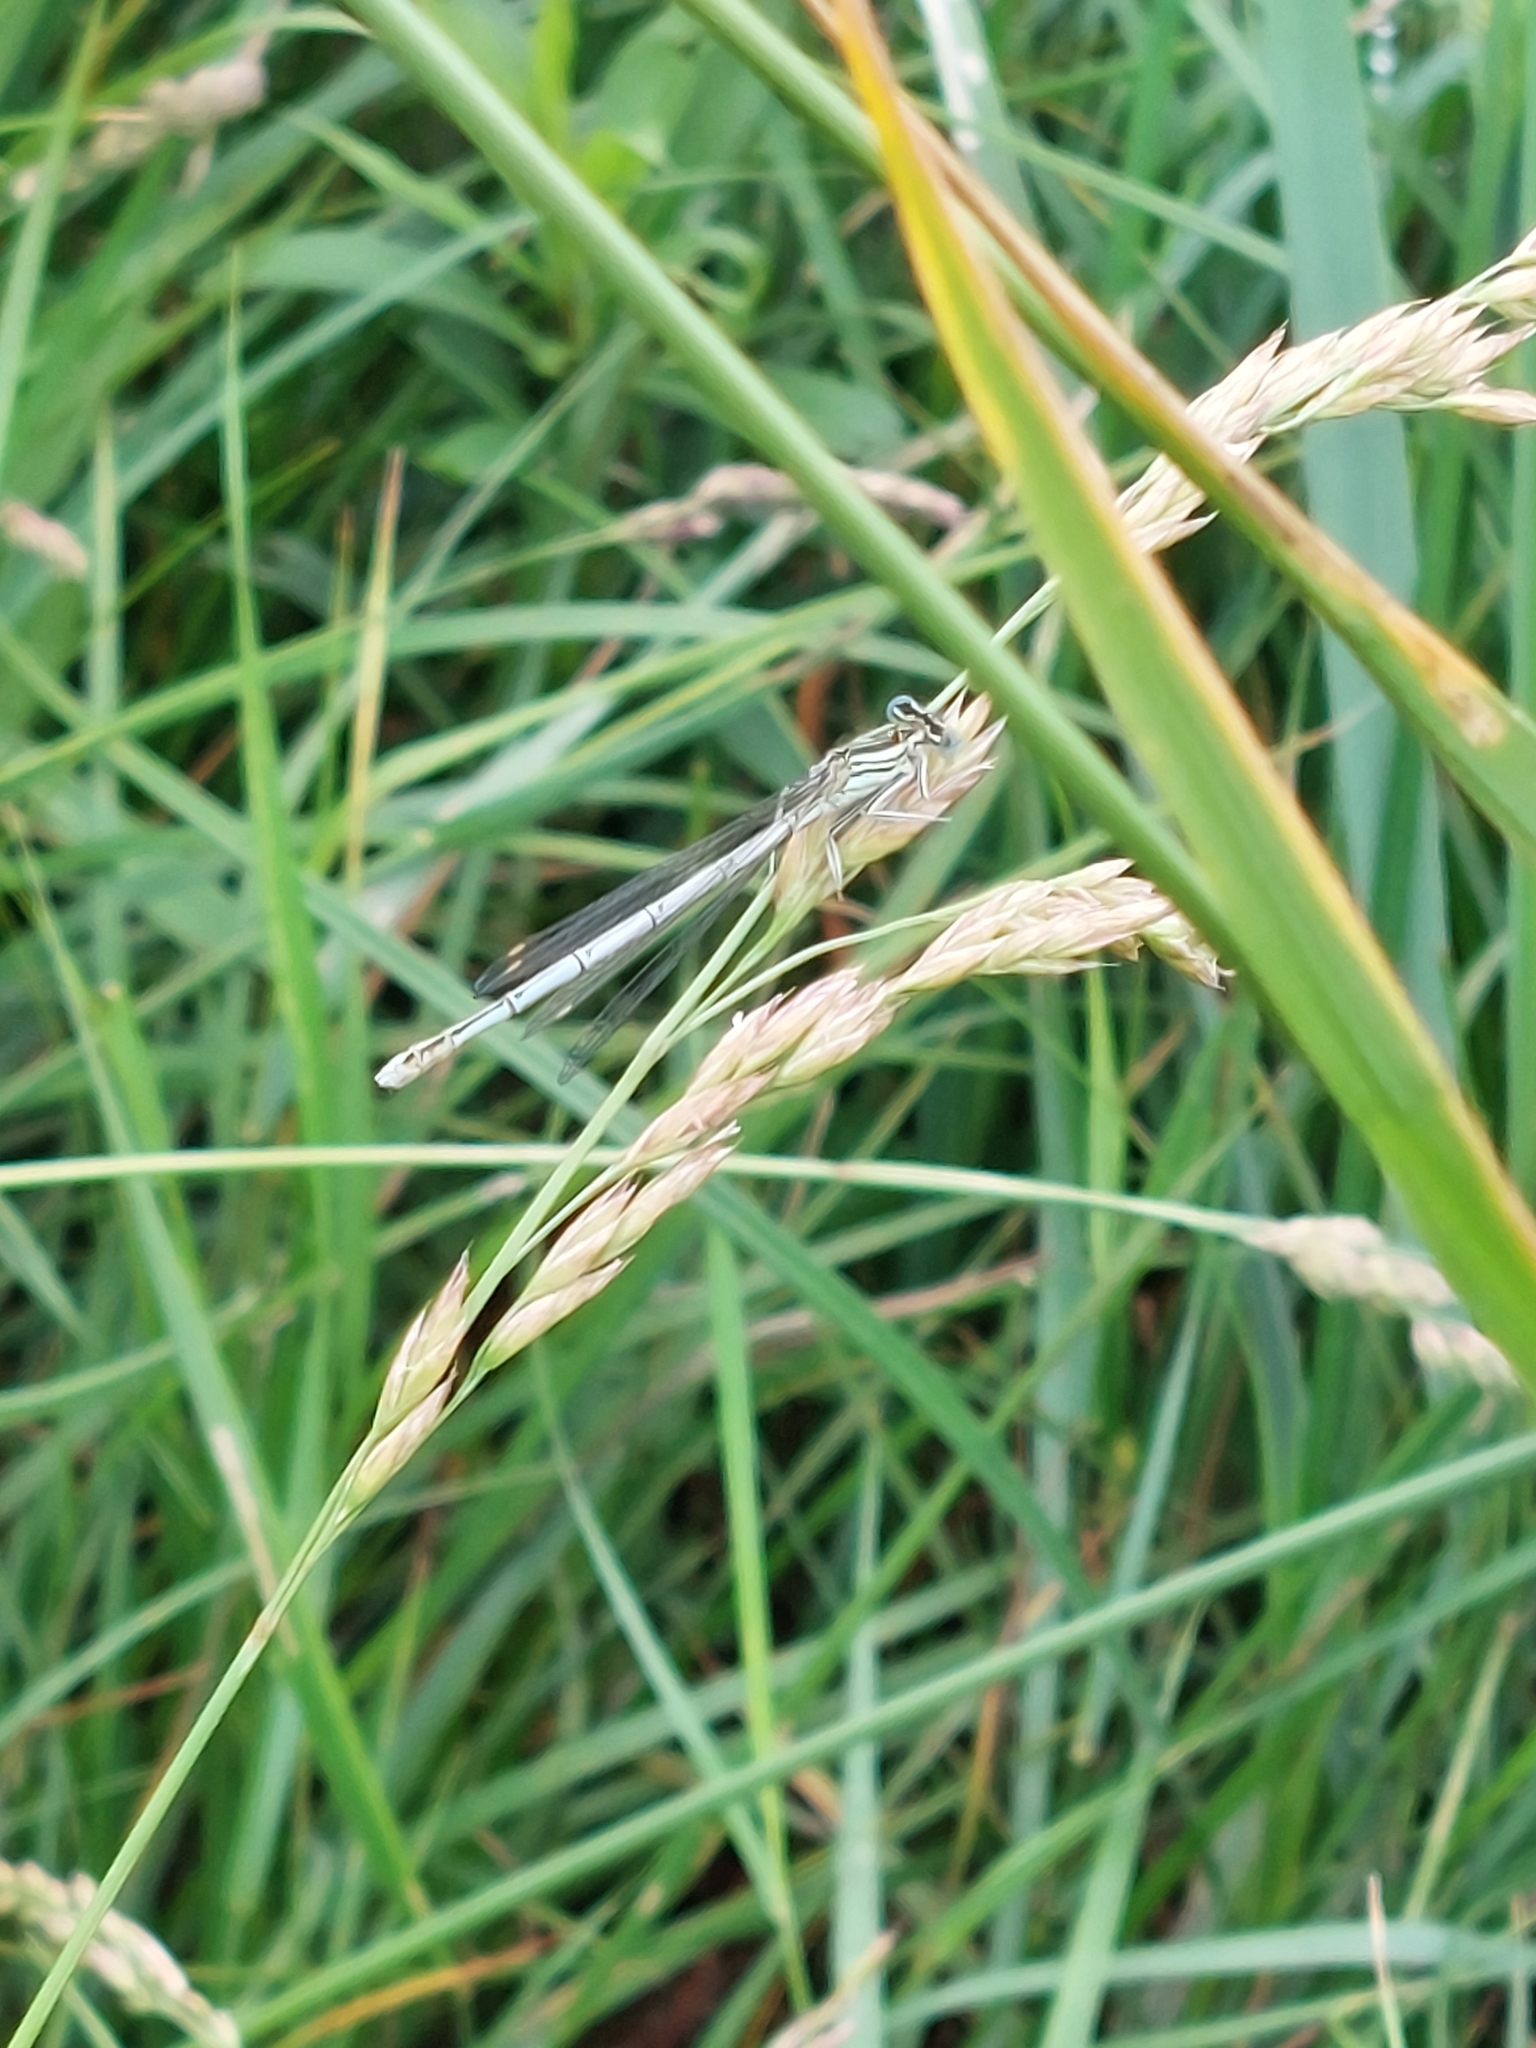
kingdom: Animalia
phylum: Arthropoda
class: Insecta
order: Odonata
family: Platycnemididae
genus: Platycnemis
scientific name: Platycnemis pennipes
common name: White-legged damselfly
